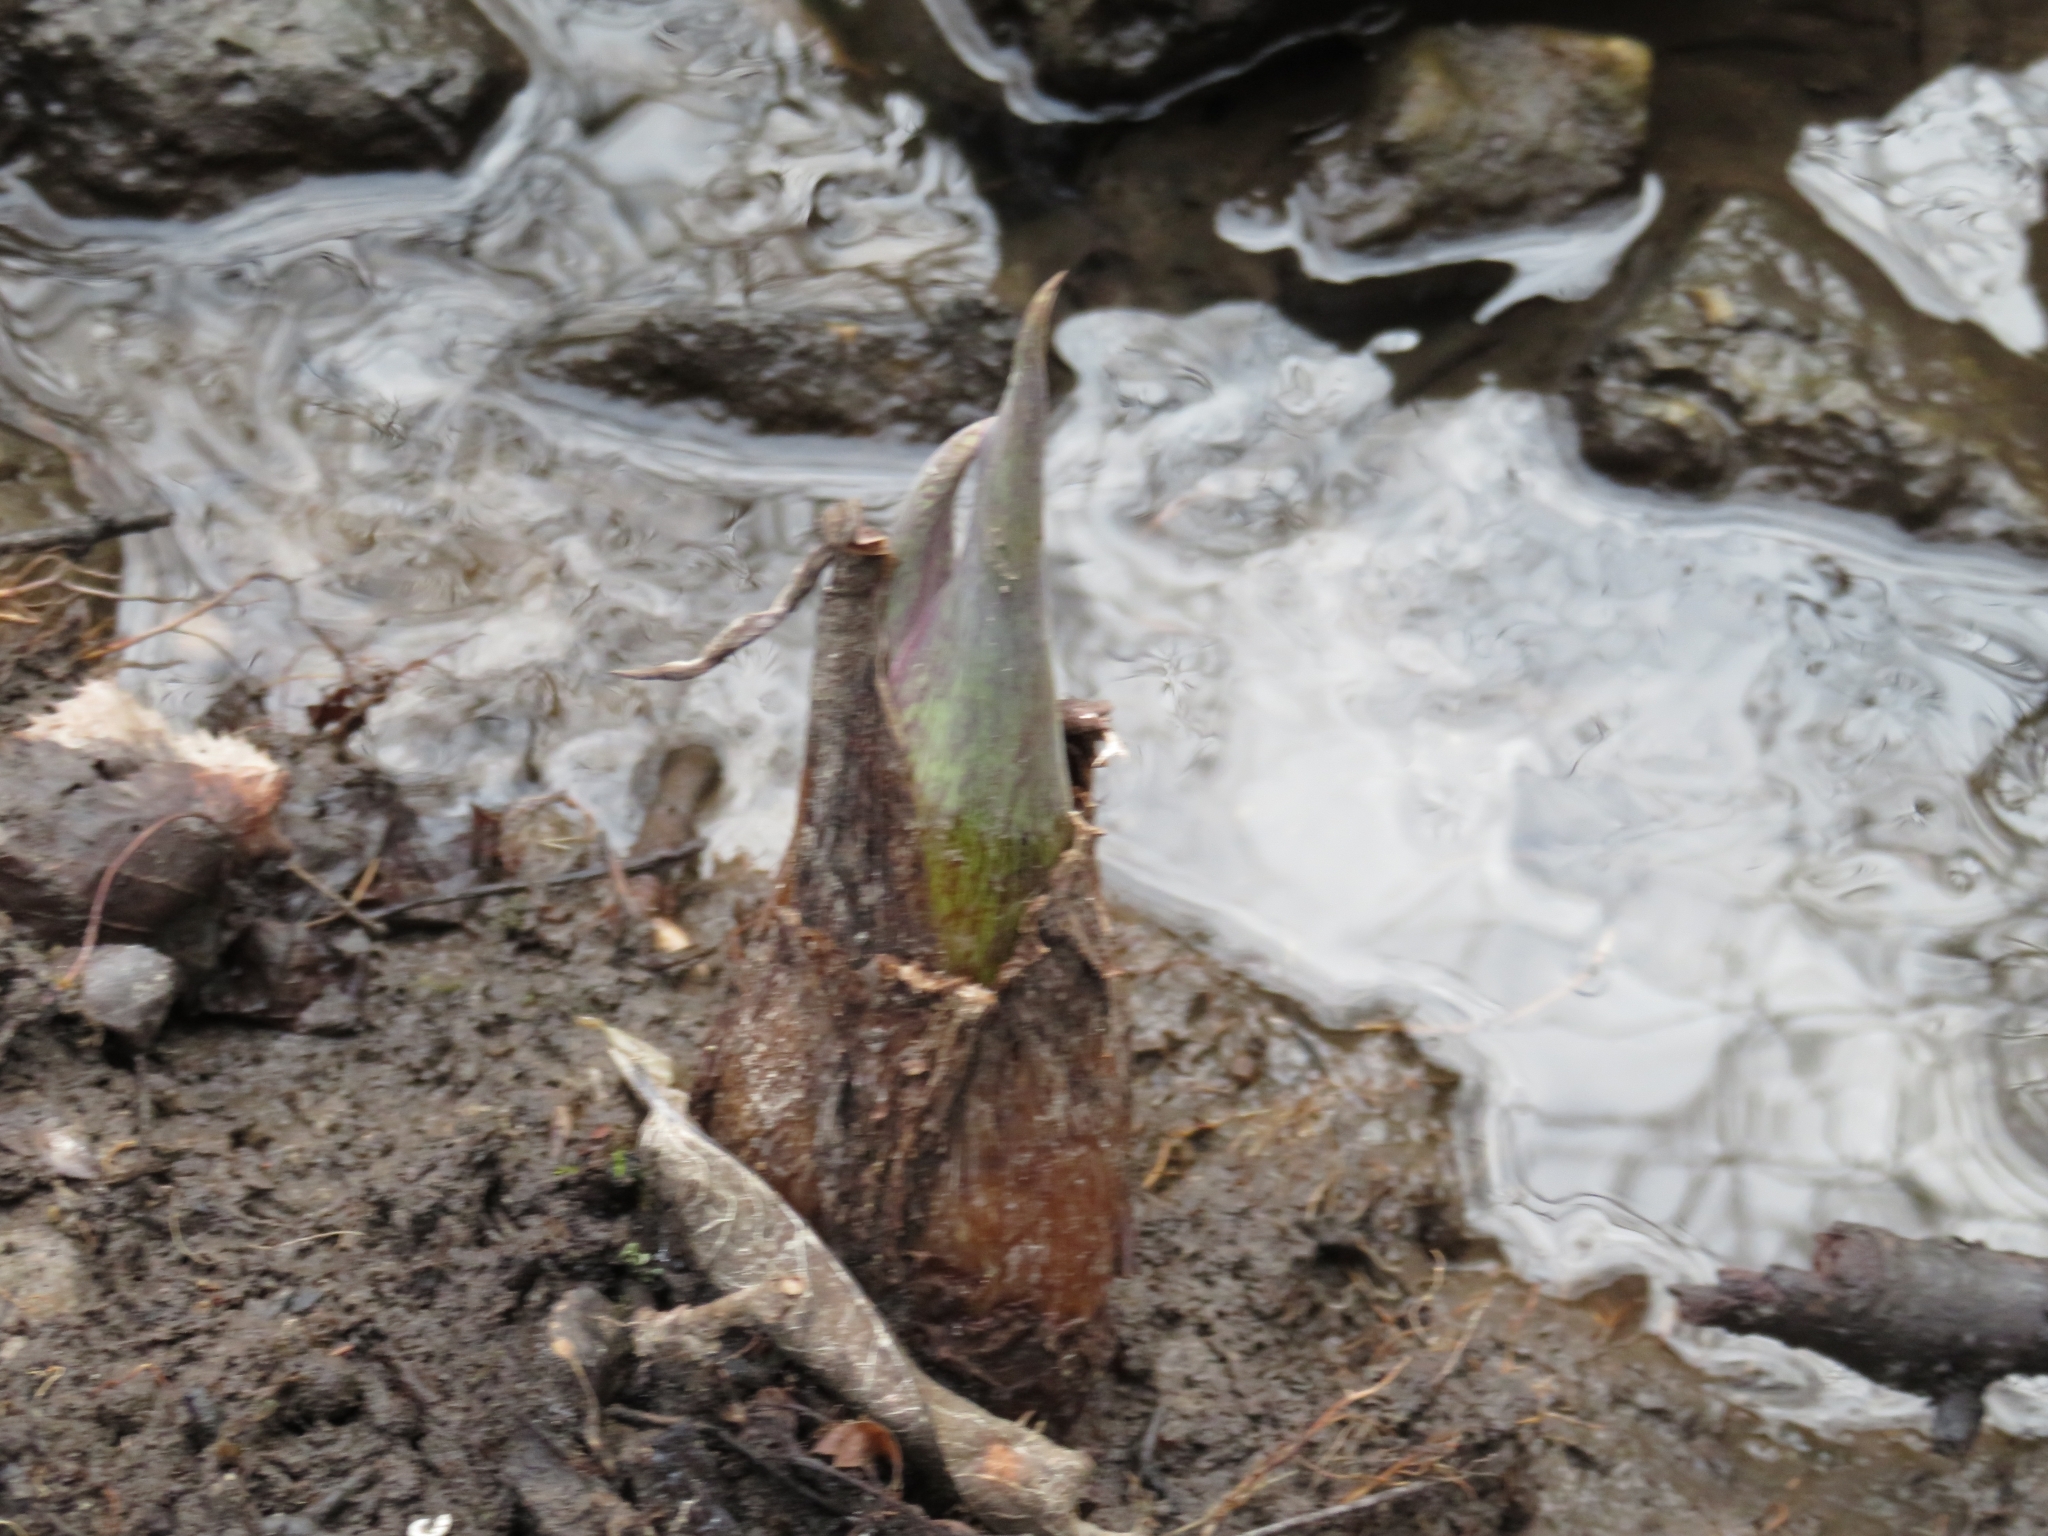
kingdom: Plantae
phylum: Tracheophyta
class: Liliopsida
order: Alismatales
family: Araceae
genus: Symplocarpus
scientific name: Symplocarpus foetidus
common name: Eastern skunk cabbage
